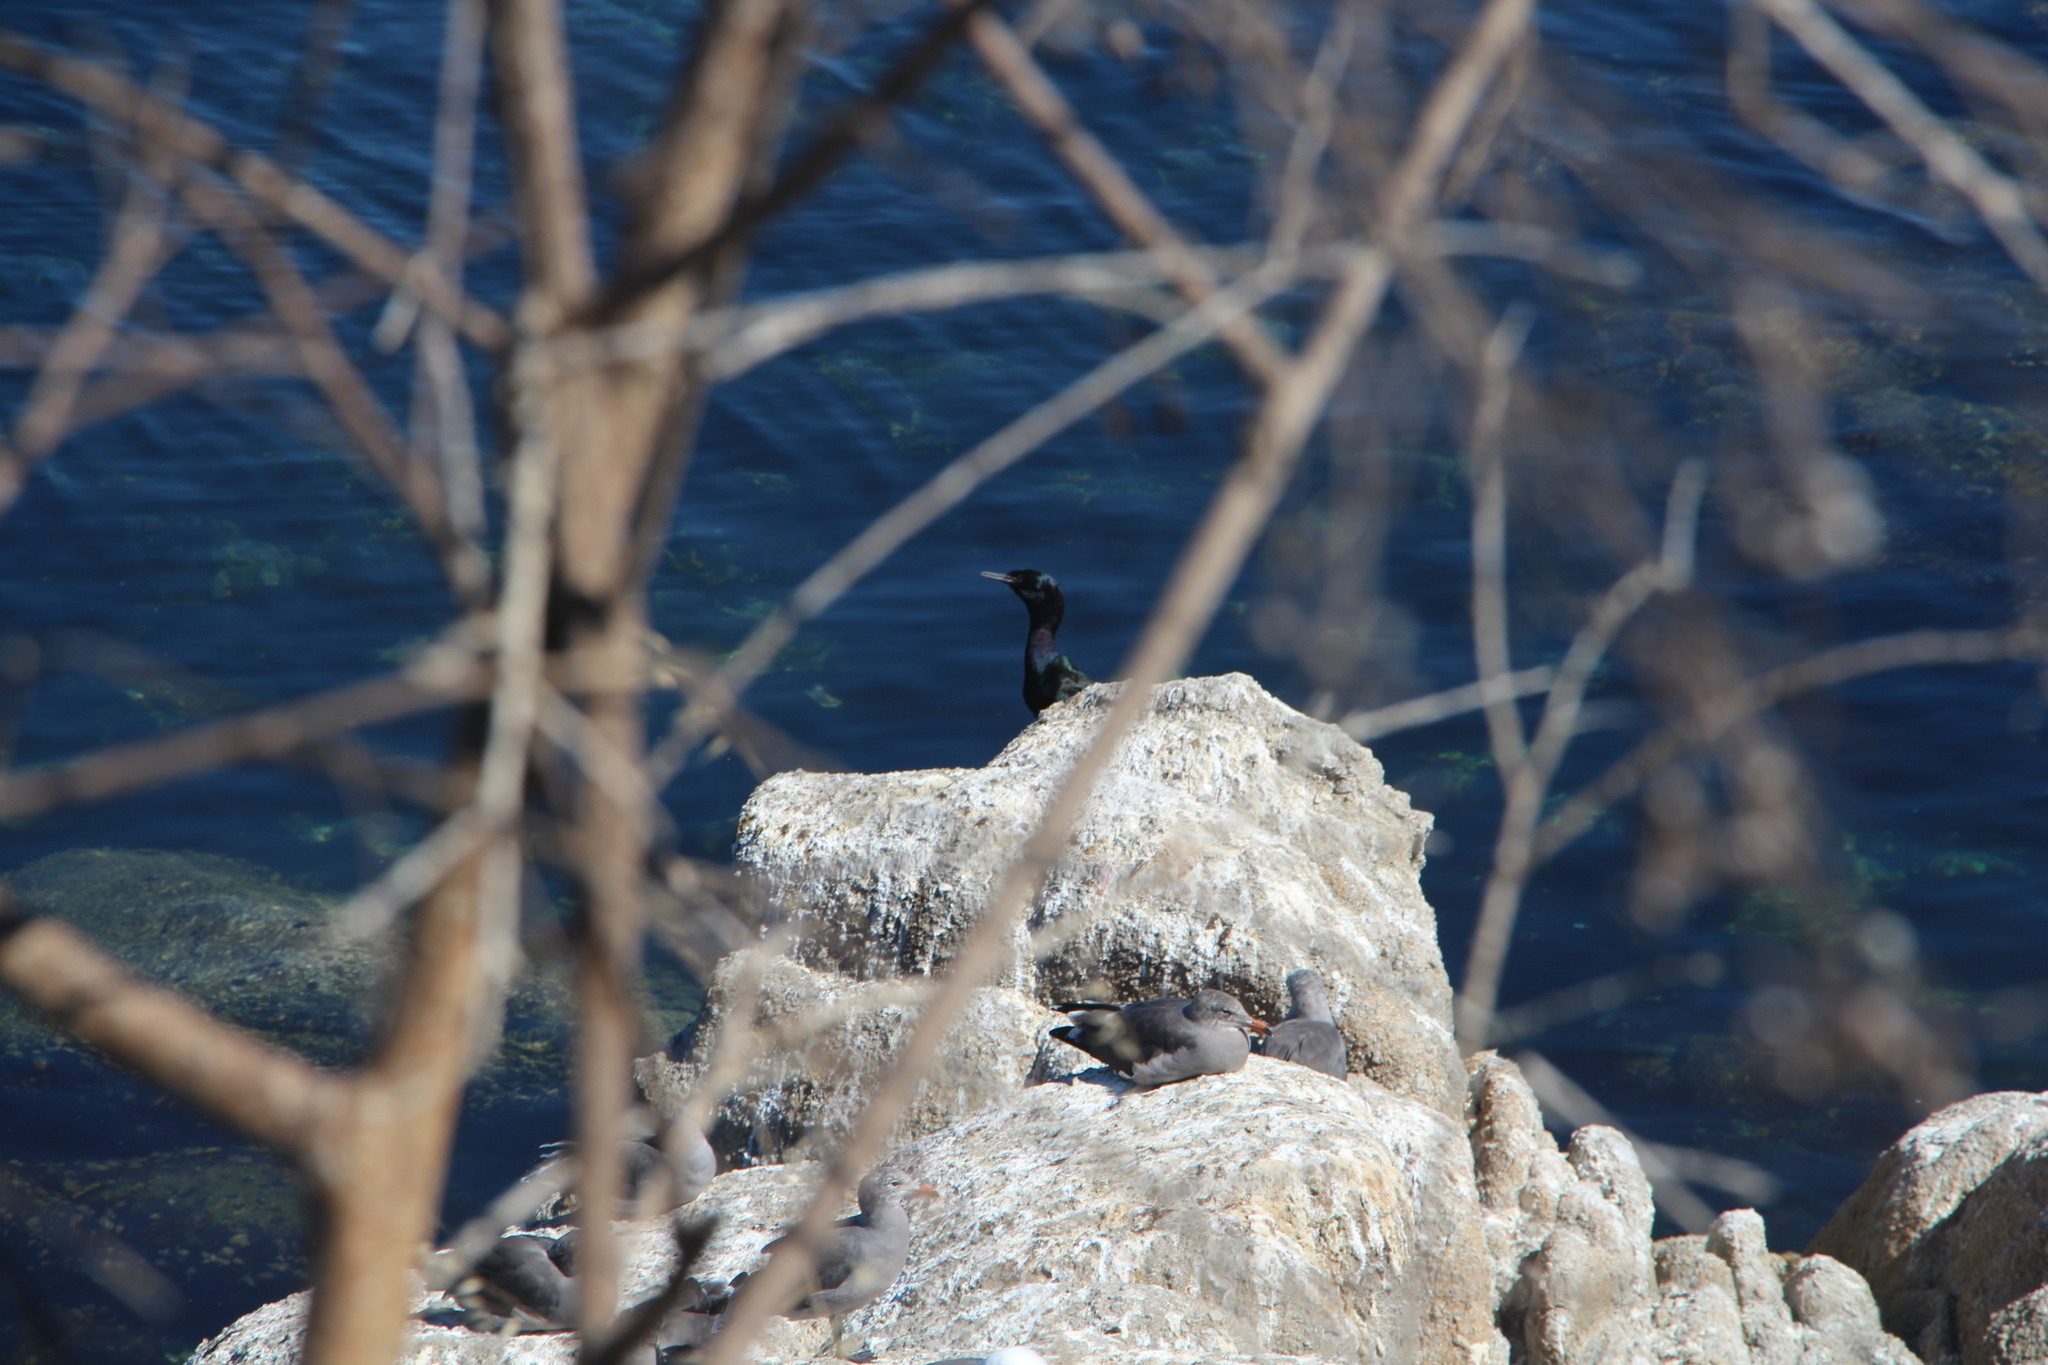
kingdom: Animalia
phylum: Chordata
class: Aves
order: Suliformes
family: Phalacrocoracidae
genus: Phalacrocorax
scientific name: Phalacrocorax pelagicus
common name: Pelagic cormorant
